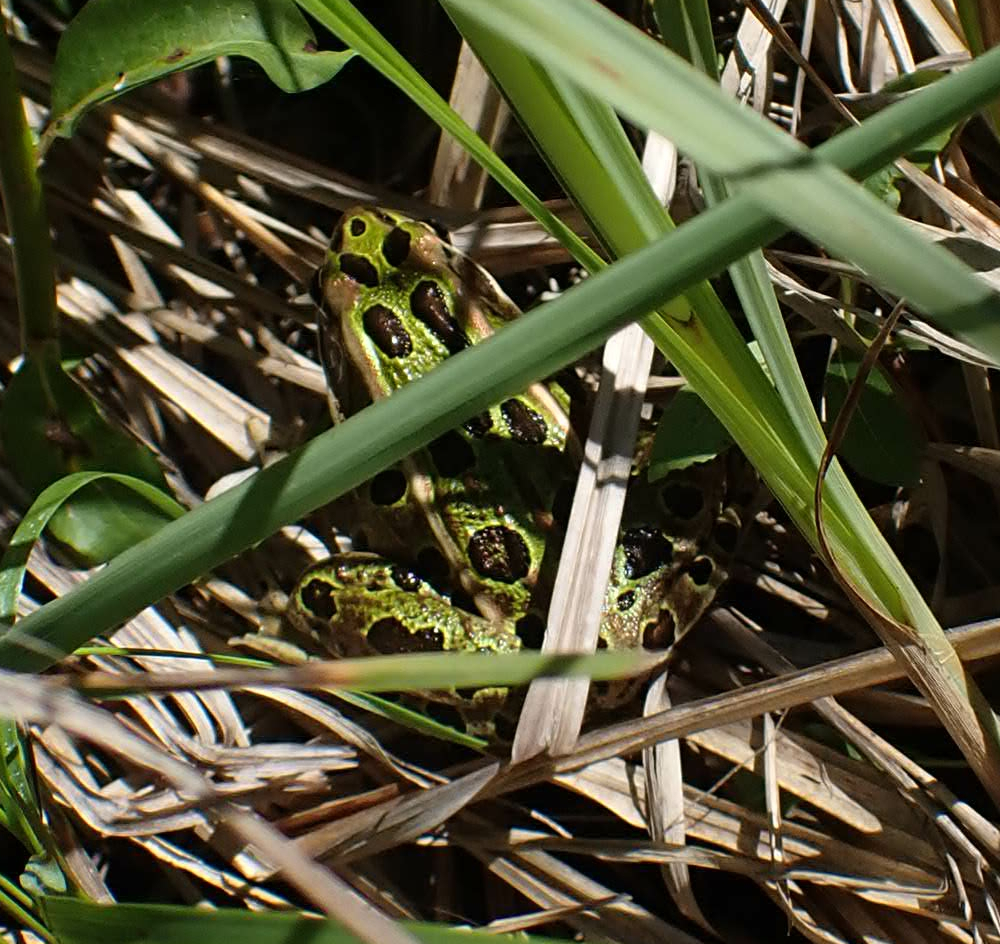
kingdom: Animalia
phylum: Chordata
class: Amphibia
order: Anura
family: Ranidae
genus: Lithobates
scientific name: Lithobates pipiens
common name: Northern leopard frog
